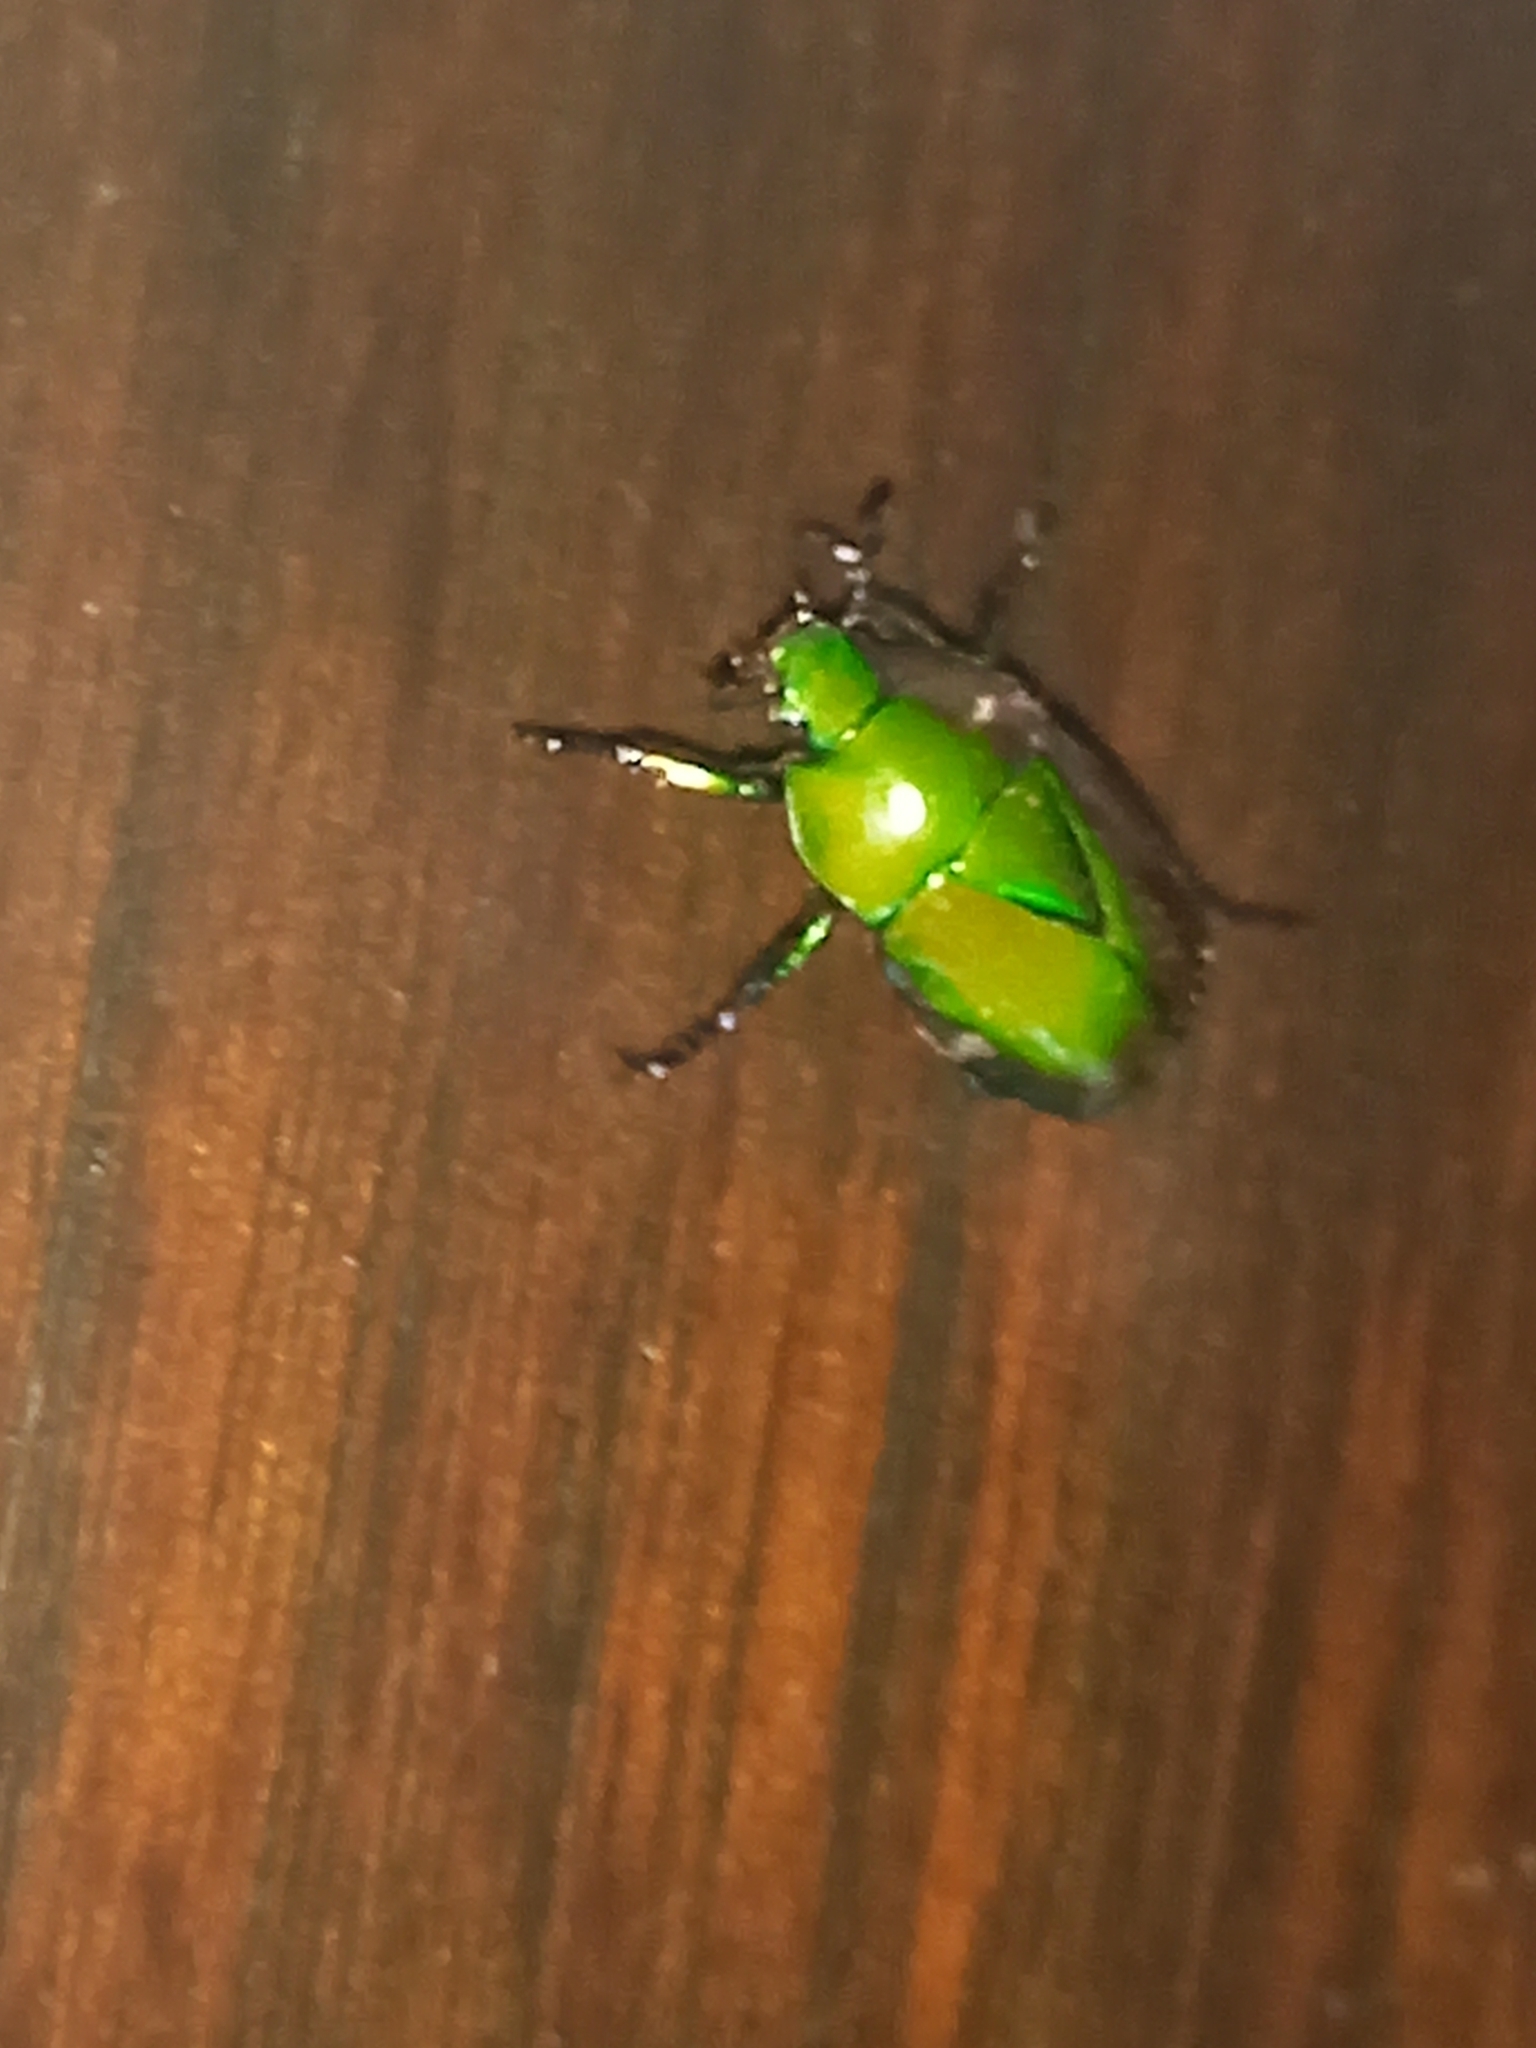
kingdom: Animalia
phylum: Arthropoda
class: Insecta
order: Coleoptera
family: Scarabaeidae
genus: Macraspis
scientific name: Macraspis chrysis
